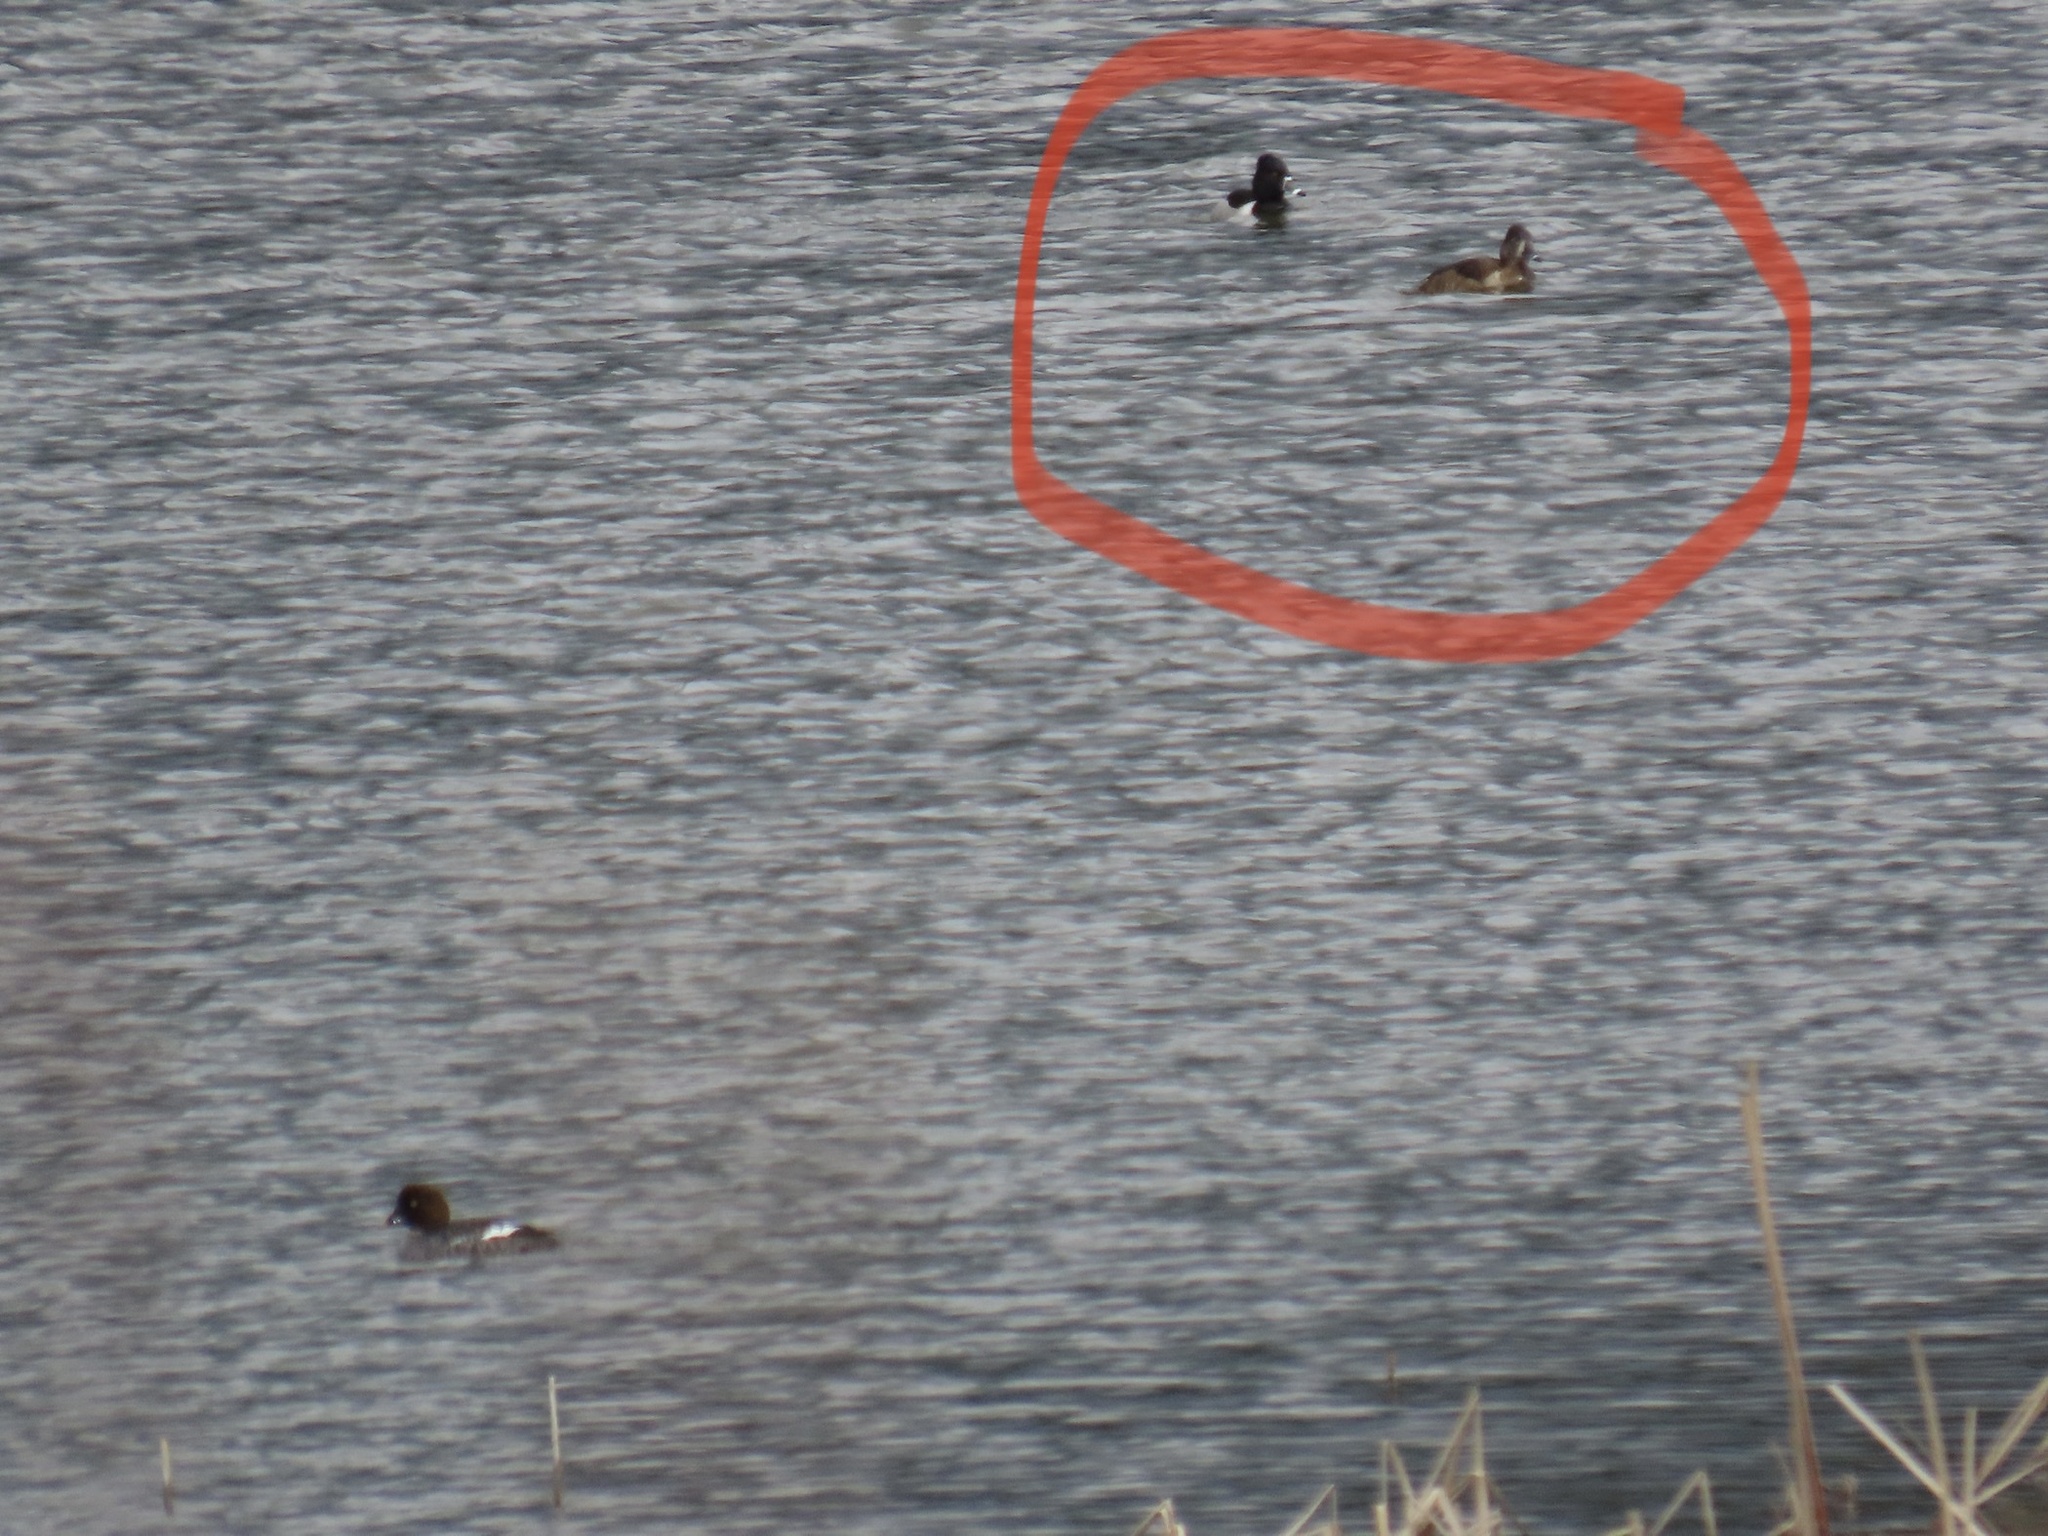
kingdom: Animalia
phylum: Chordata
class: Aves
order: Anseriformes
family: Anatidae
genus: Aythya
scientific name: Aythya collaris
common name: Ring-necked duck
